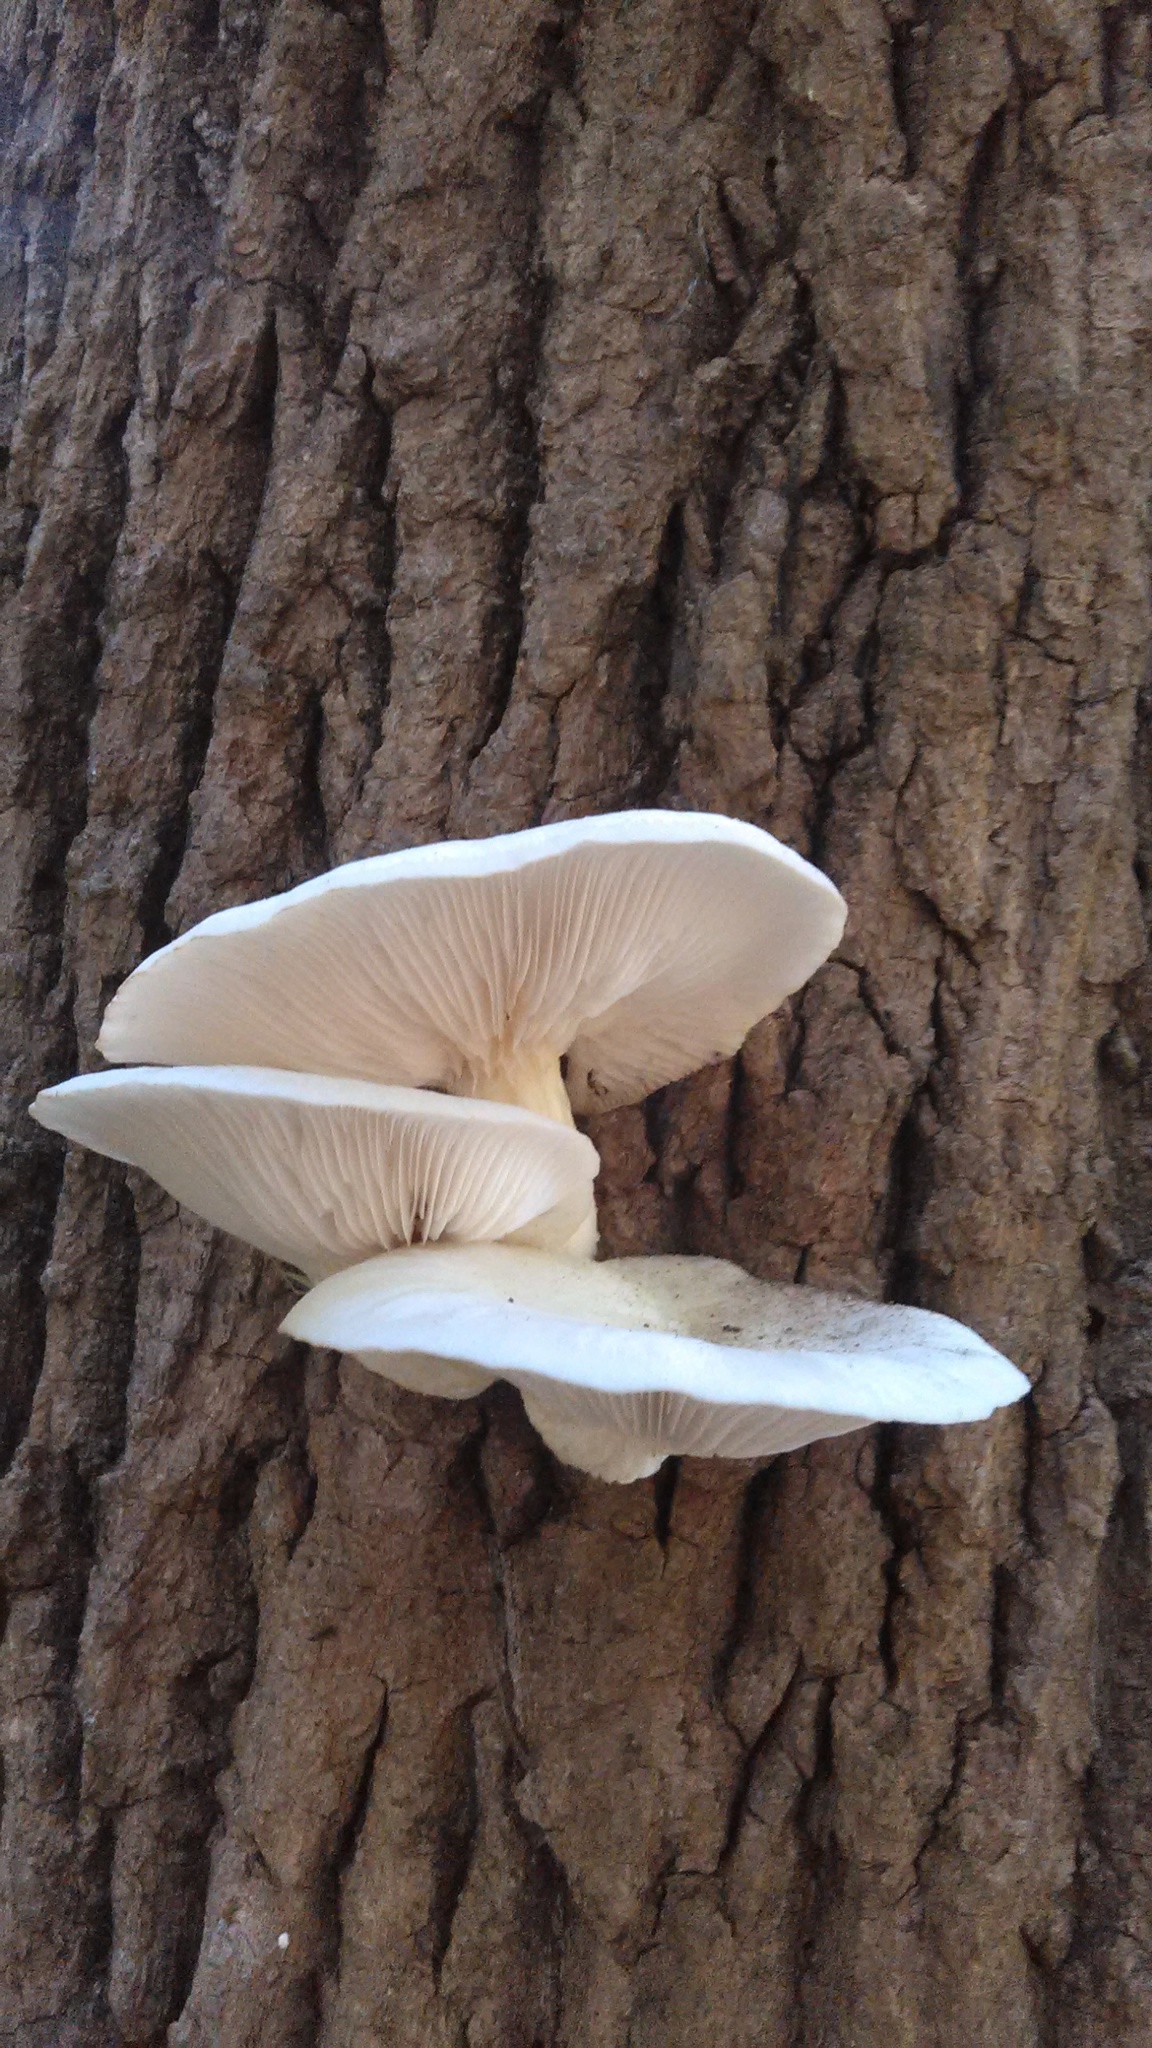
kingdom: Fungi
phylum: Basidiomycota
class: Agaricomycetes
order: Agaricales
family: Pleurotaceae
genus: Pleurotus
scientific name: Pleurotus populinus
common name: Aspen oyster mushroom
